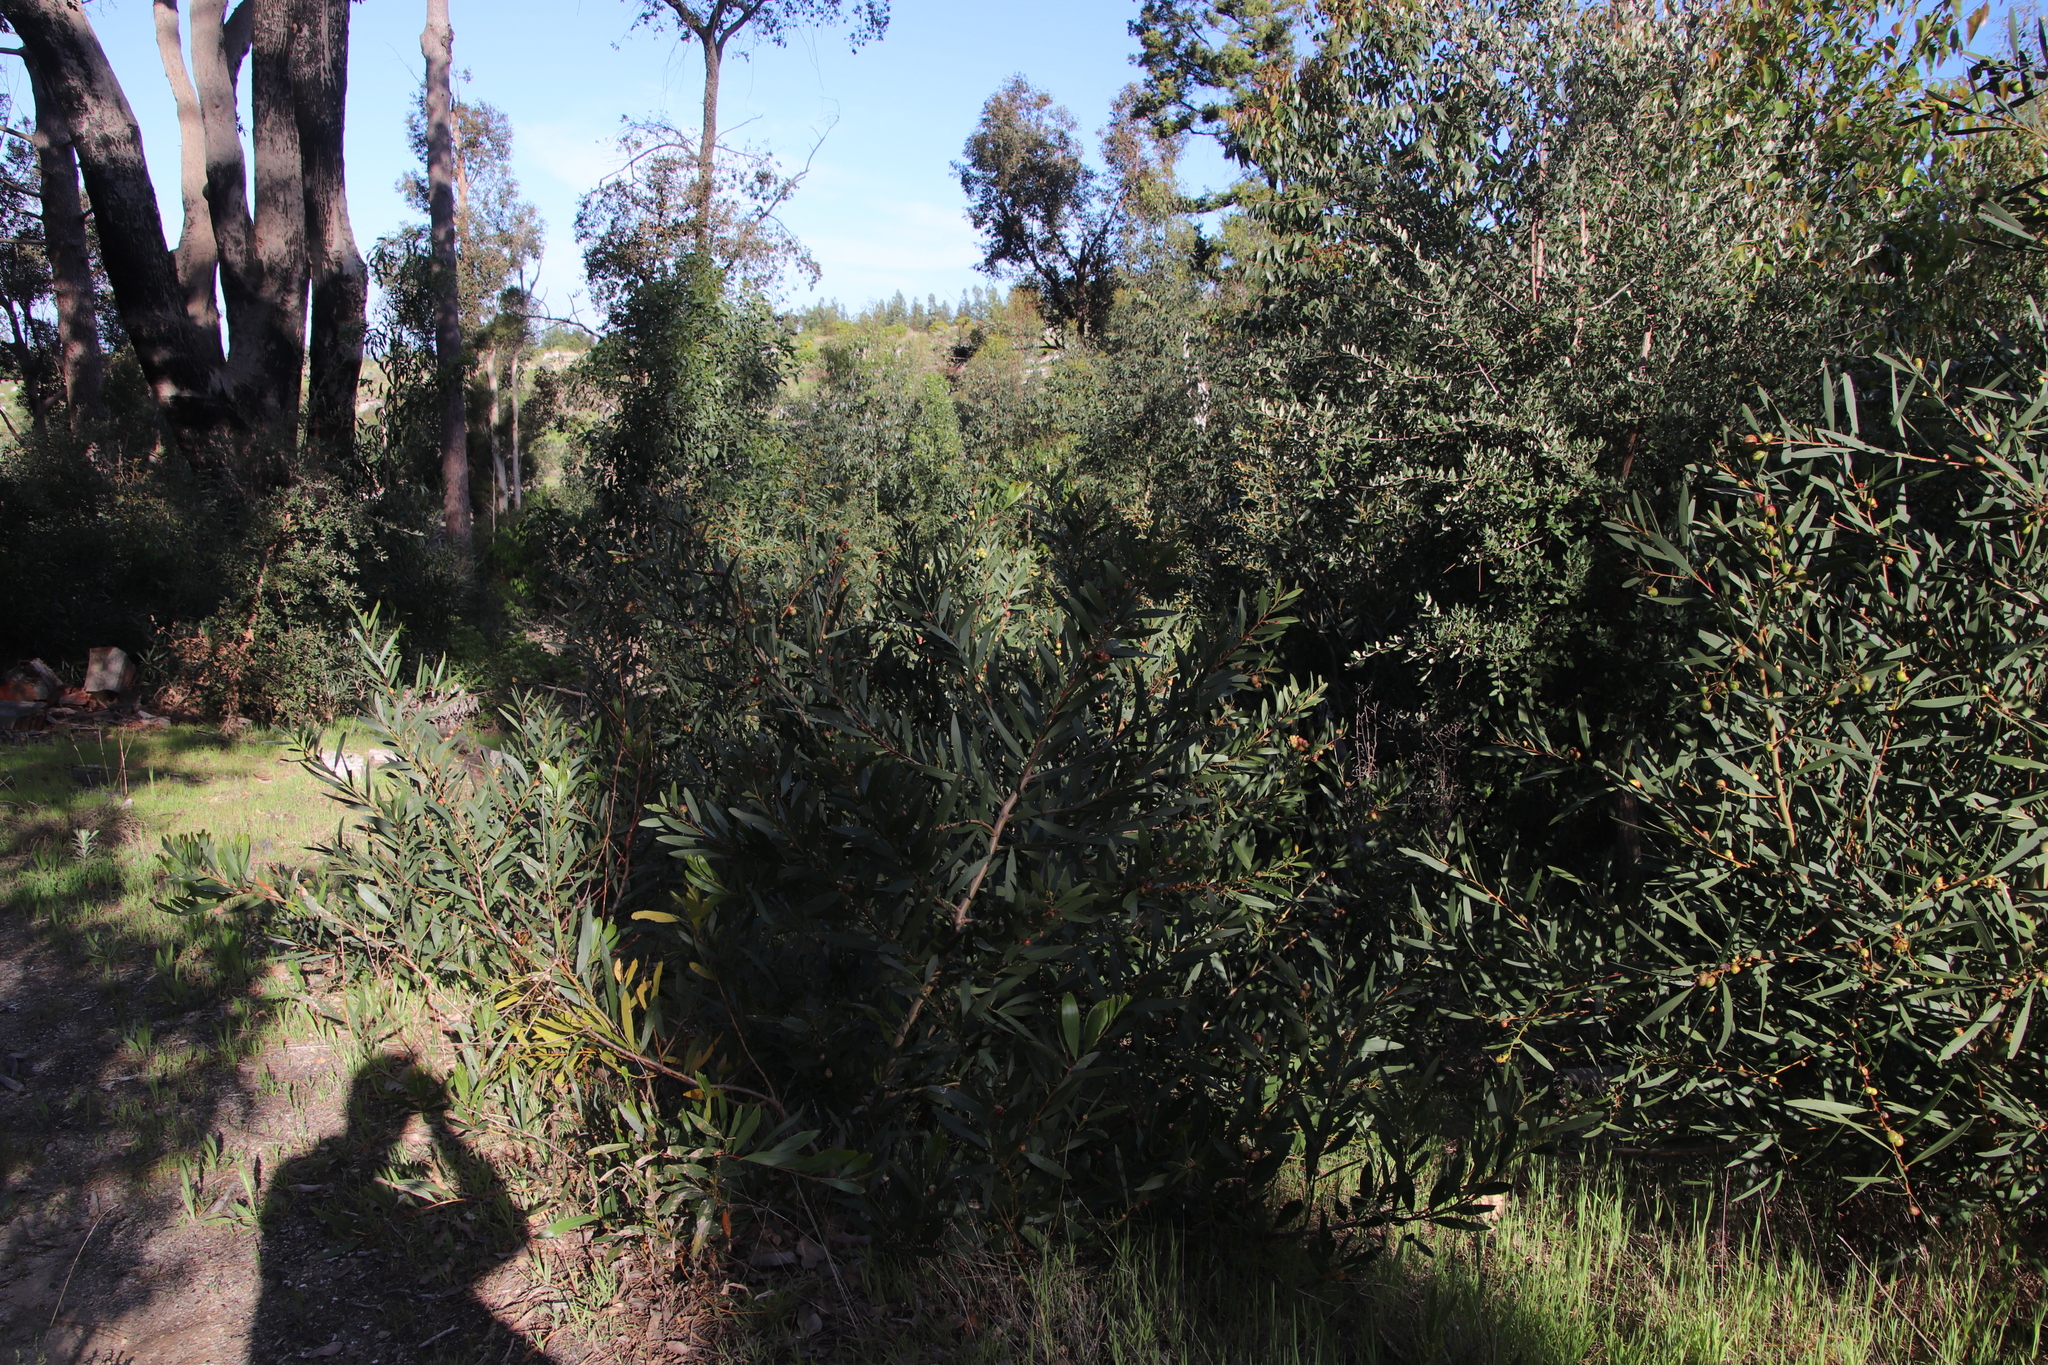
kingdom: Plantae
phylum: Tracheophyta
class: Magnoliopsida
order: Fabales
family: Fabaceae
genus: Acacia
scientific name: Acacia longifolia
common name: Sydney golden wattle
